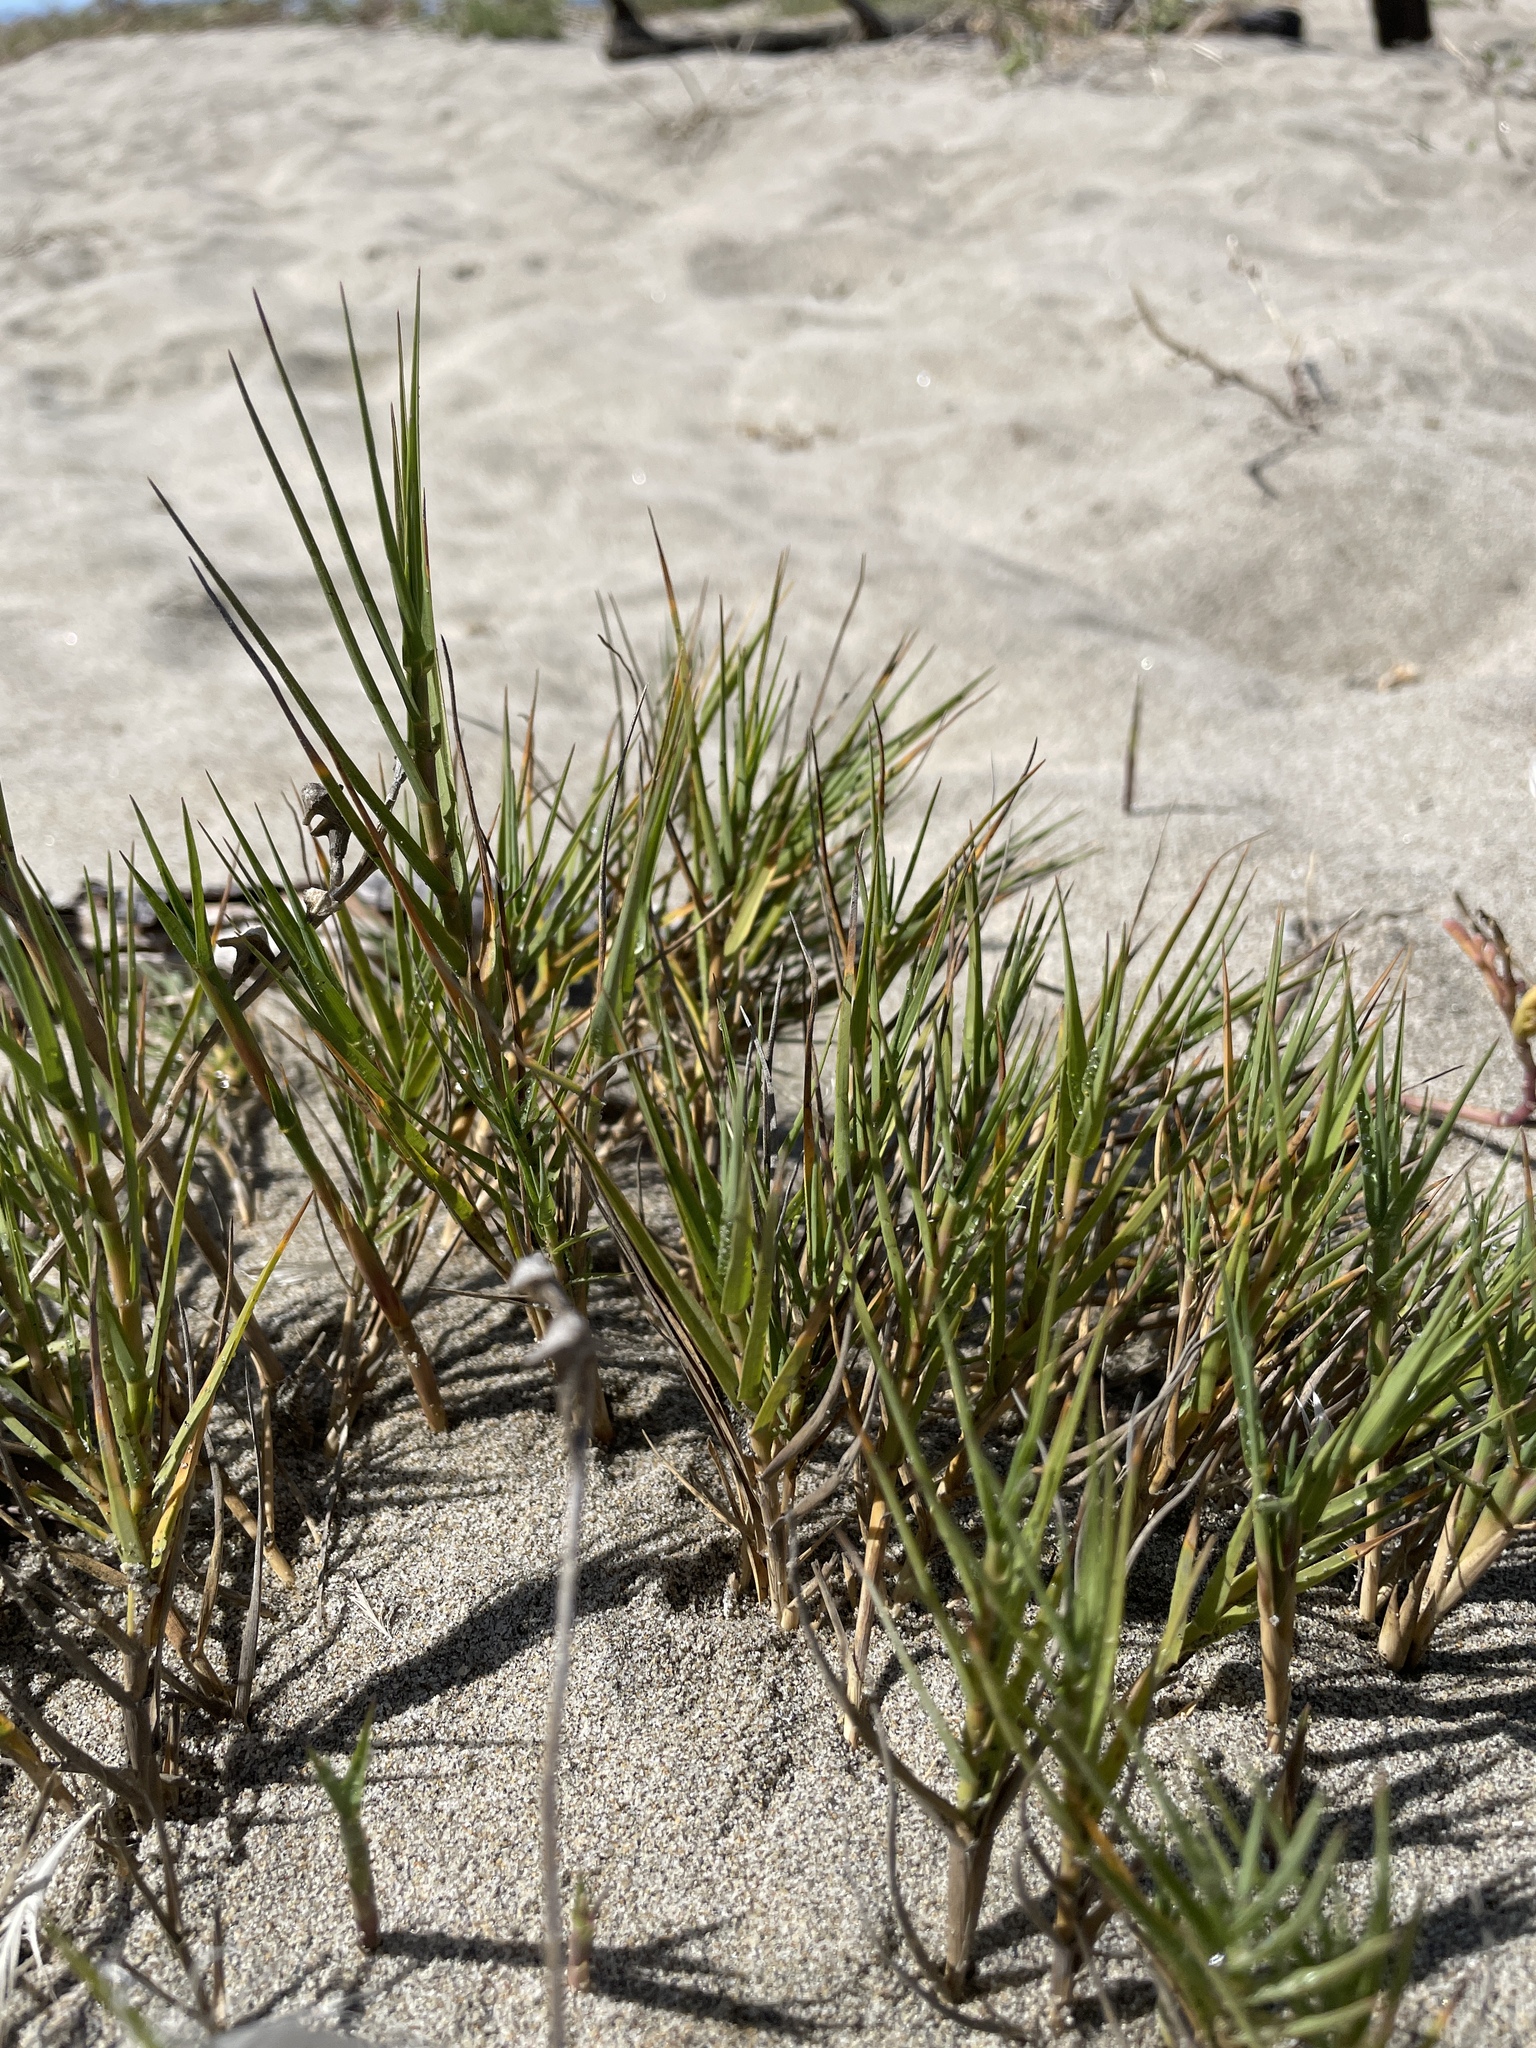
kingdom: Plantae
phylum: Tracheophyta
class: Liliopsida
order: Poales
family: Poaceae
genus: Distichlis
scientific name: Distichlis spicata
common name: Saltgrass
